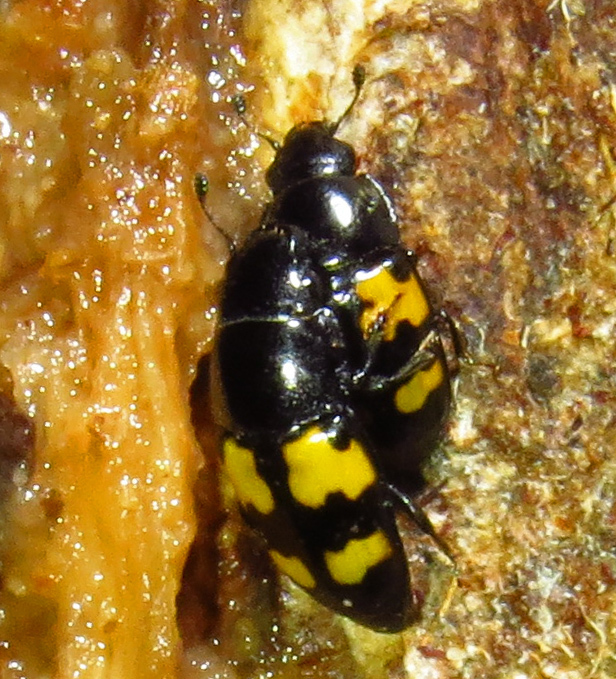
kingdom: Animalia
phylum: Arthropoda
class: Insecta
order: Coleoptera
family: Nitidulidae
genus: Glischrochilus
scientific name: Glischrochilus fasciatus
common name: Picnic beetle
